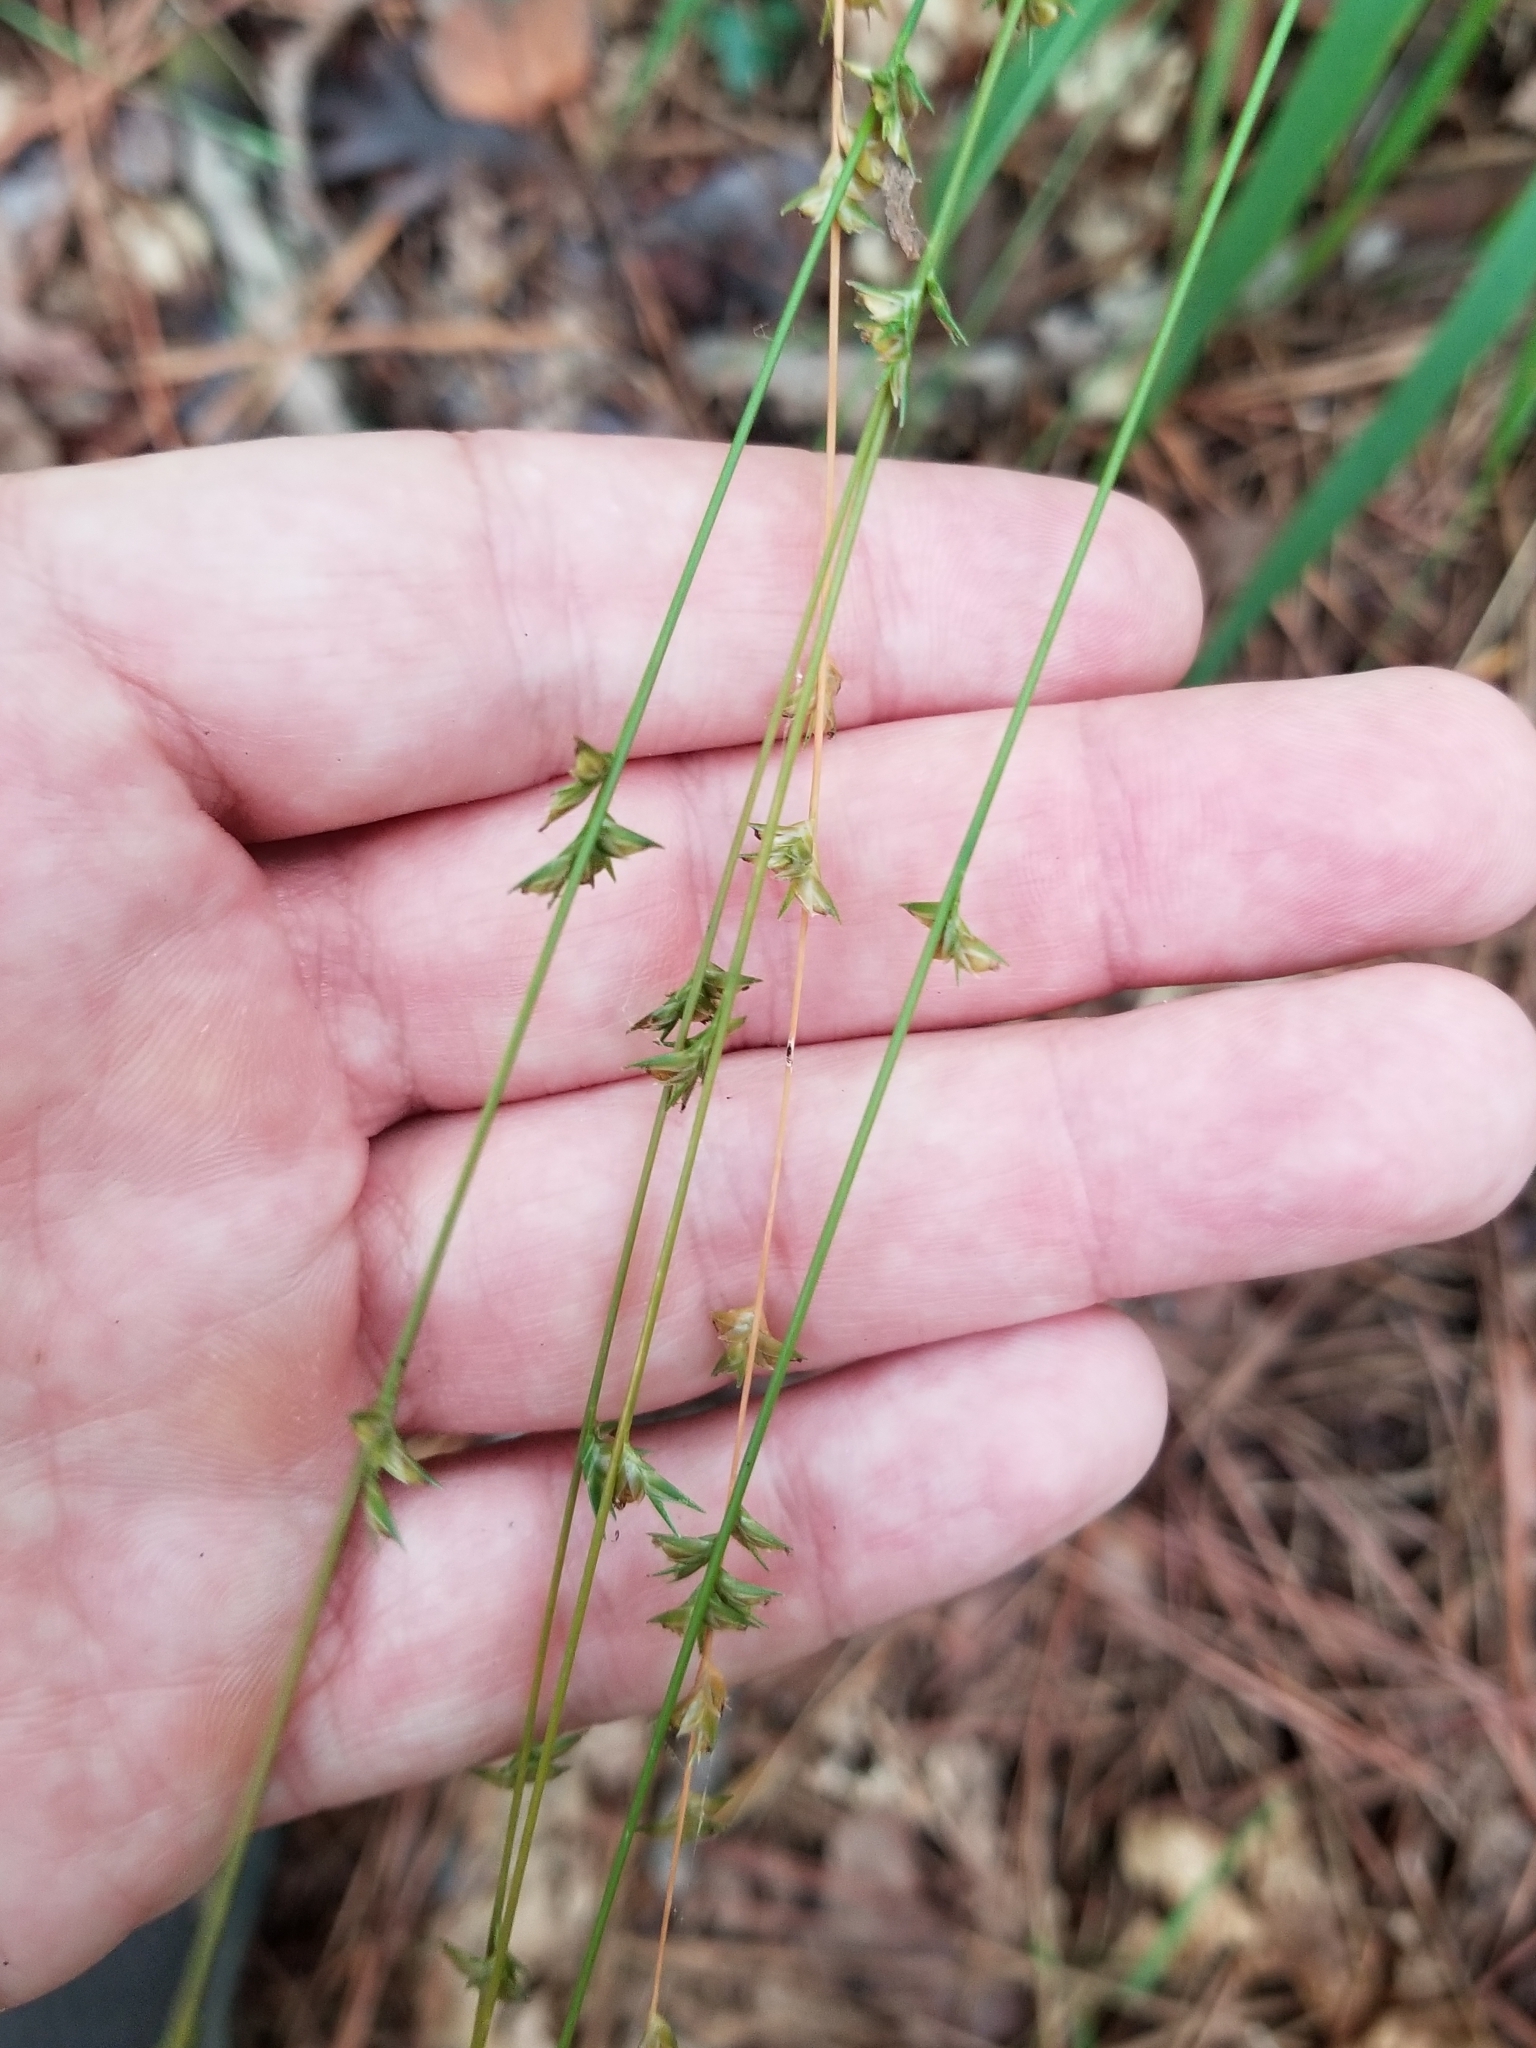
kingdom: Plantae
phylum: Tracheophyta
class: Liliopsida
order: Poales
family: Poaceae
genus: Chasmanthium
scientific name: Chasmanthium laxum
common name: Slender chasmanthium
